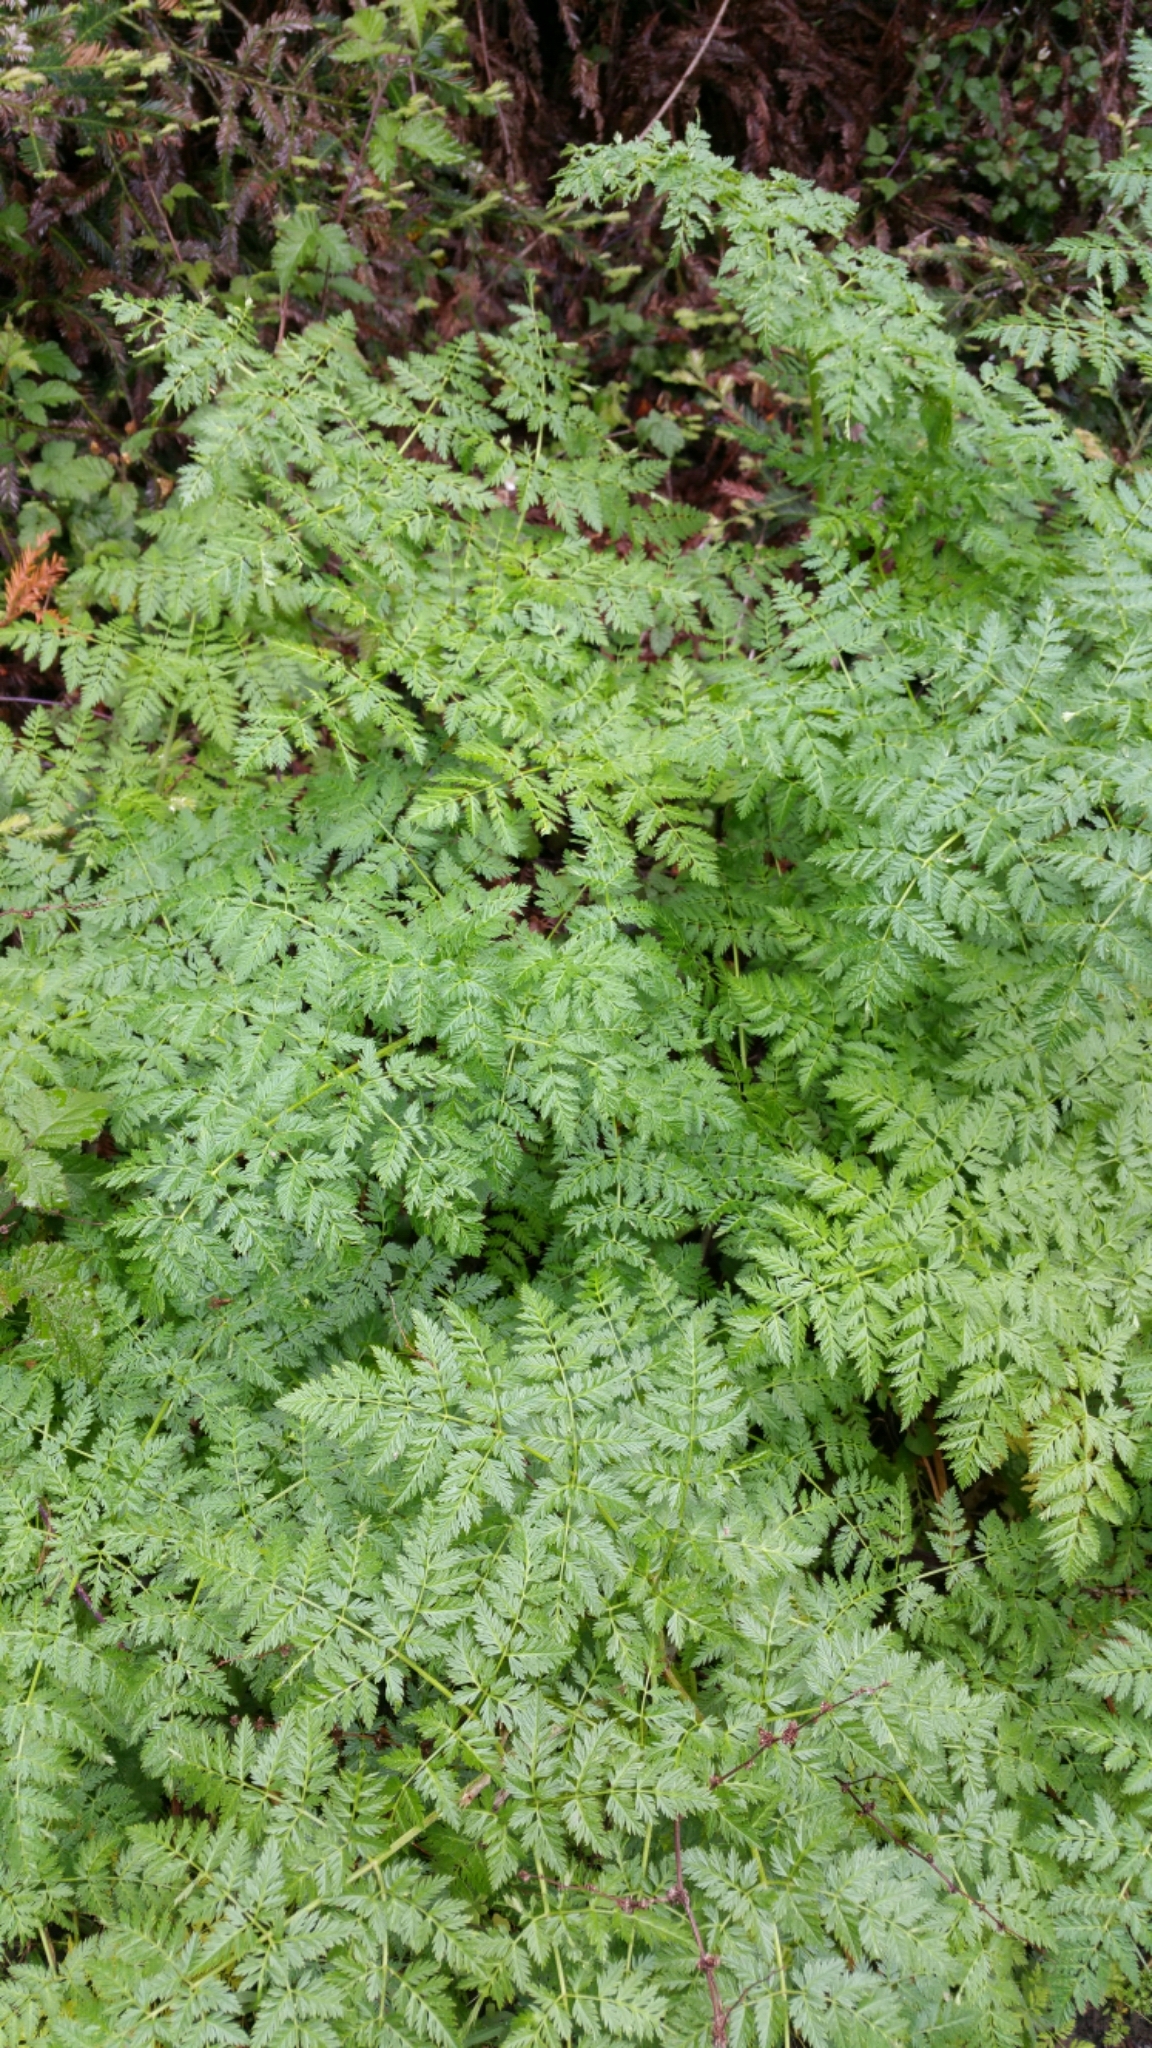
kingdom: Plantae
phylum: Tracheophyta
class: Magnoliopsida
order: Apiales
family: Apiaceae
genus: Conium
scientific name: Conium maculatum
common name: Hemlock
